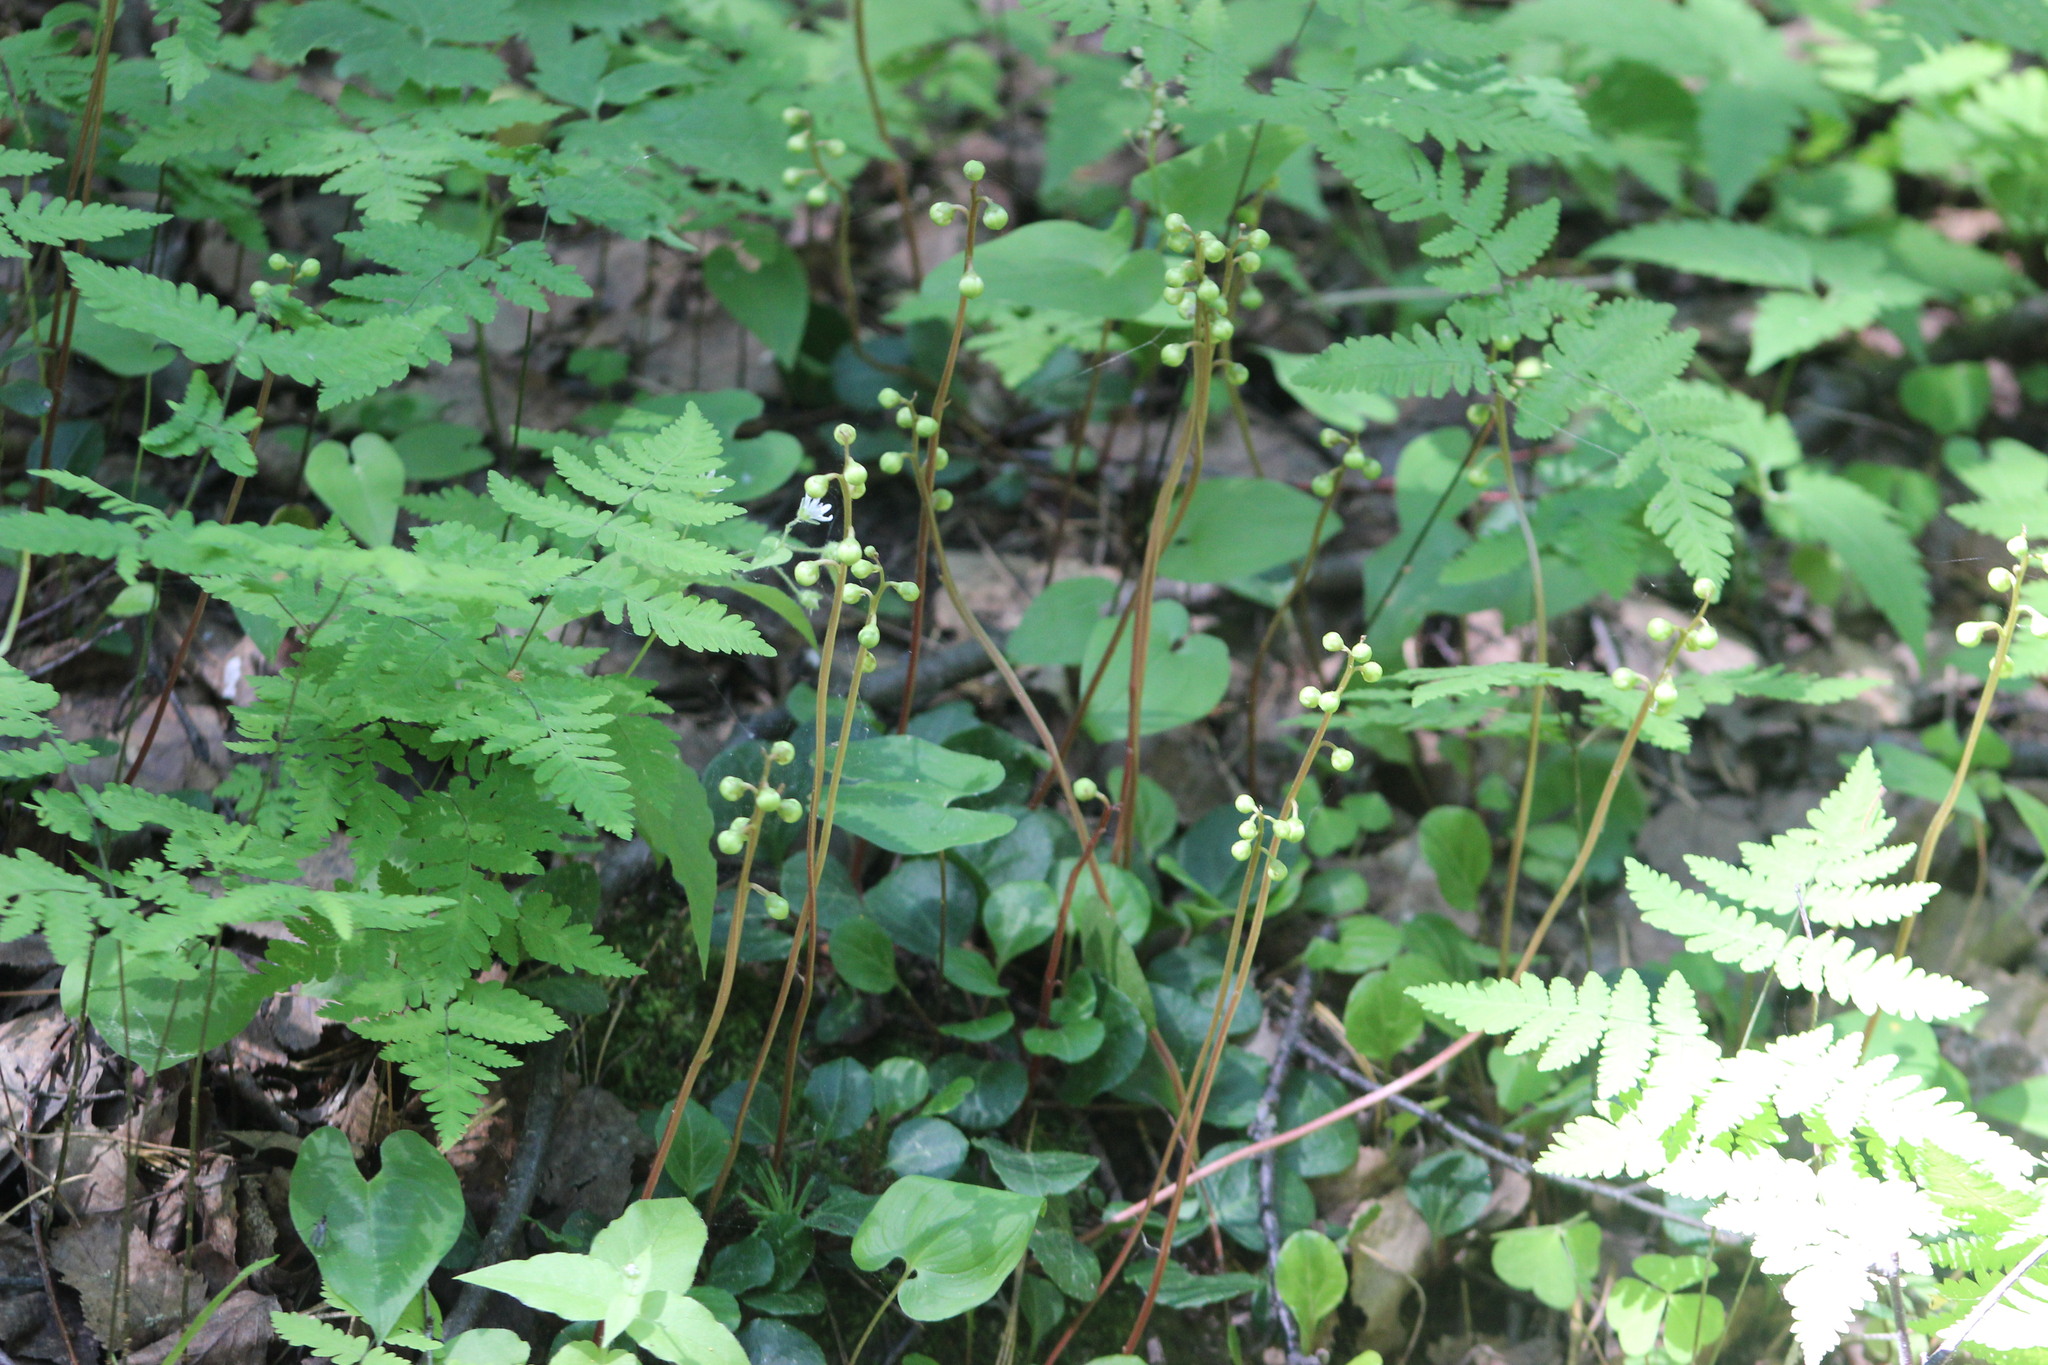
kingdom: Plantae
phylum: Tracheophyta
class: Magnoliopsida
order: Ericales
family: Ericaceae
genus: Pyrola
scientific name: Pyrola chlorantha
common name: Green wintergreen
